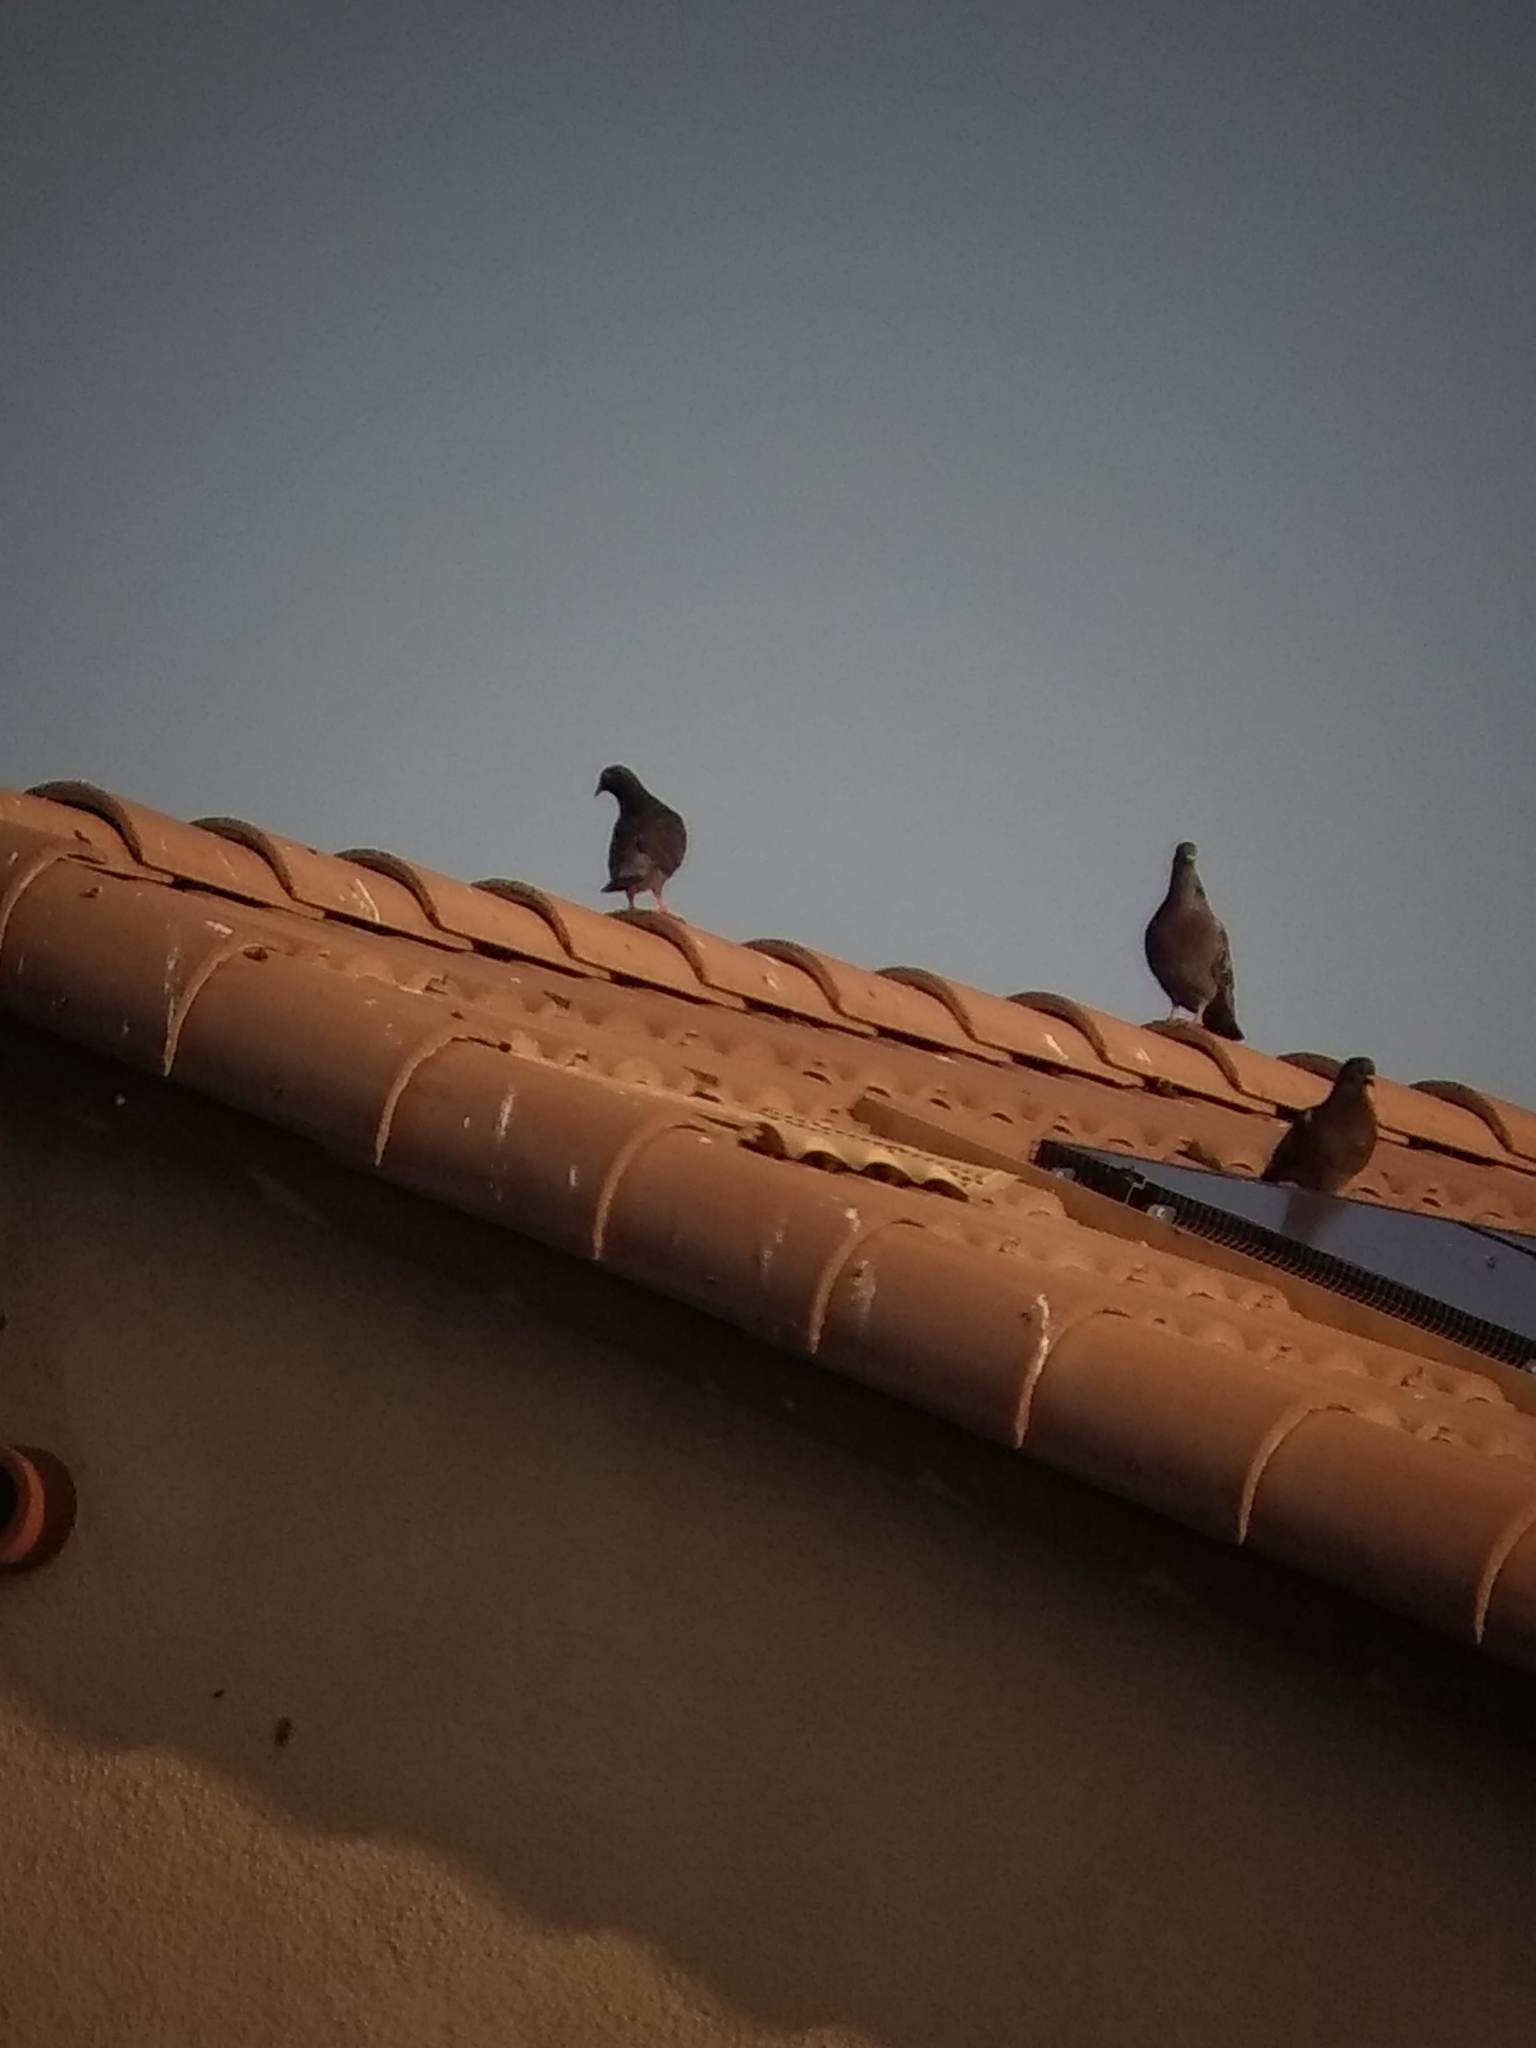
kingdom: Animalia
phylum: Chordata
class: Aves
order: Columbiformes
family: Columbidae
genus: Columba
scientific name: Columba livia
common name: Rock pigeon
